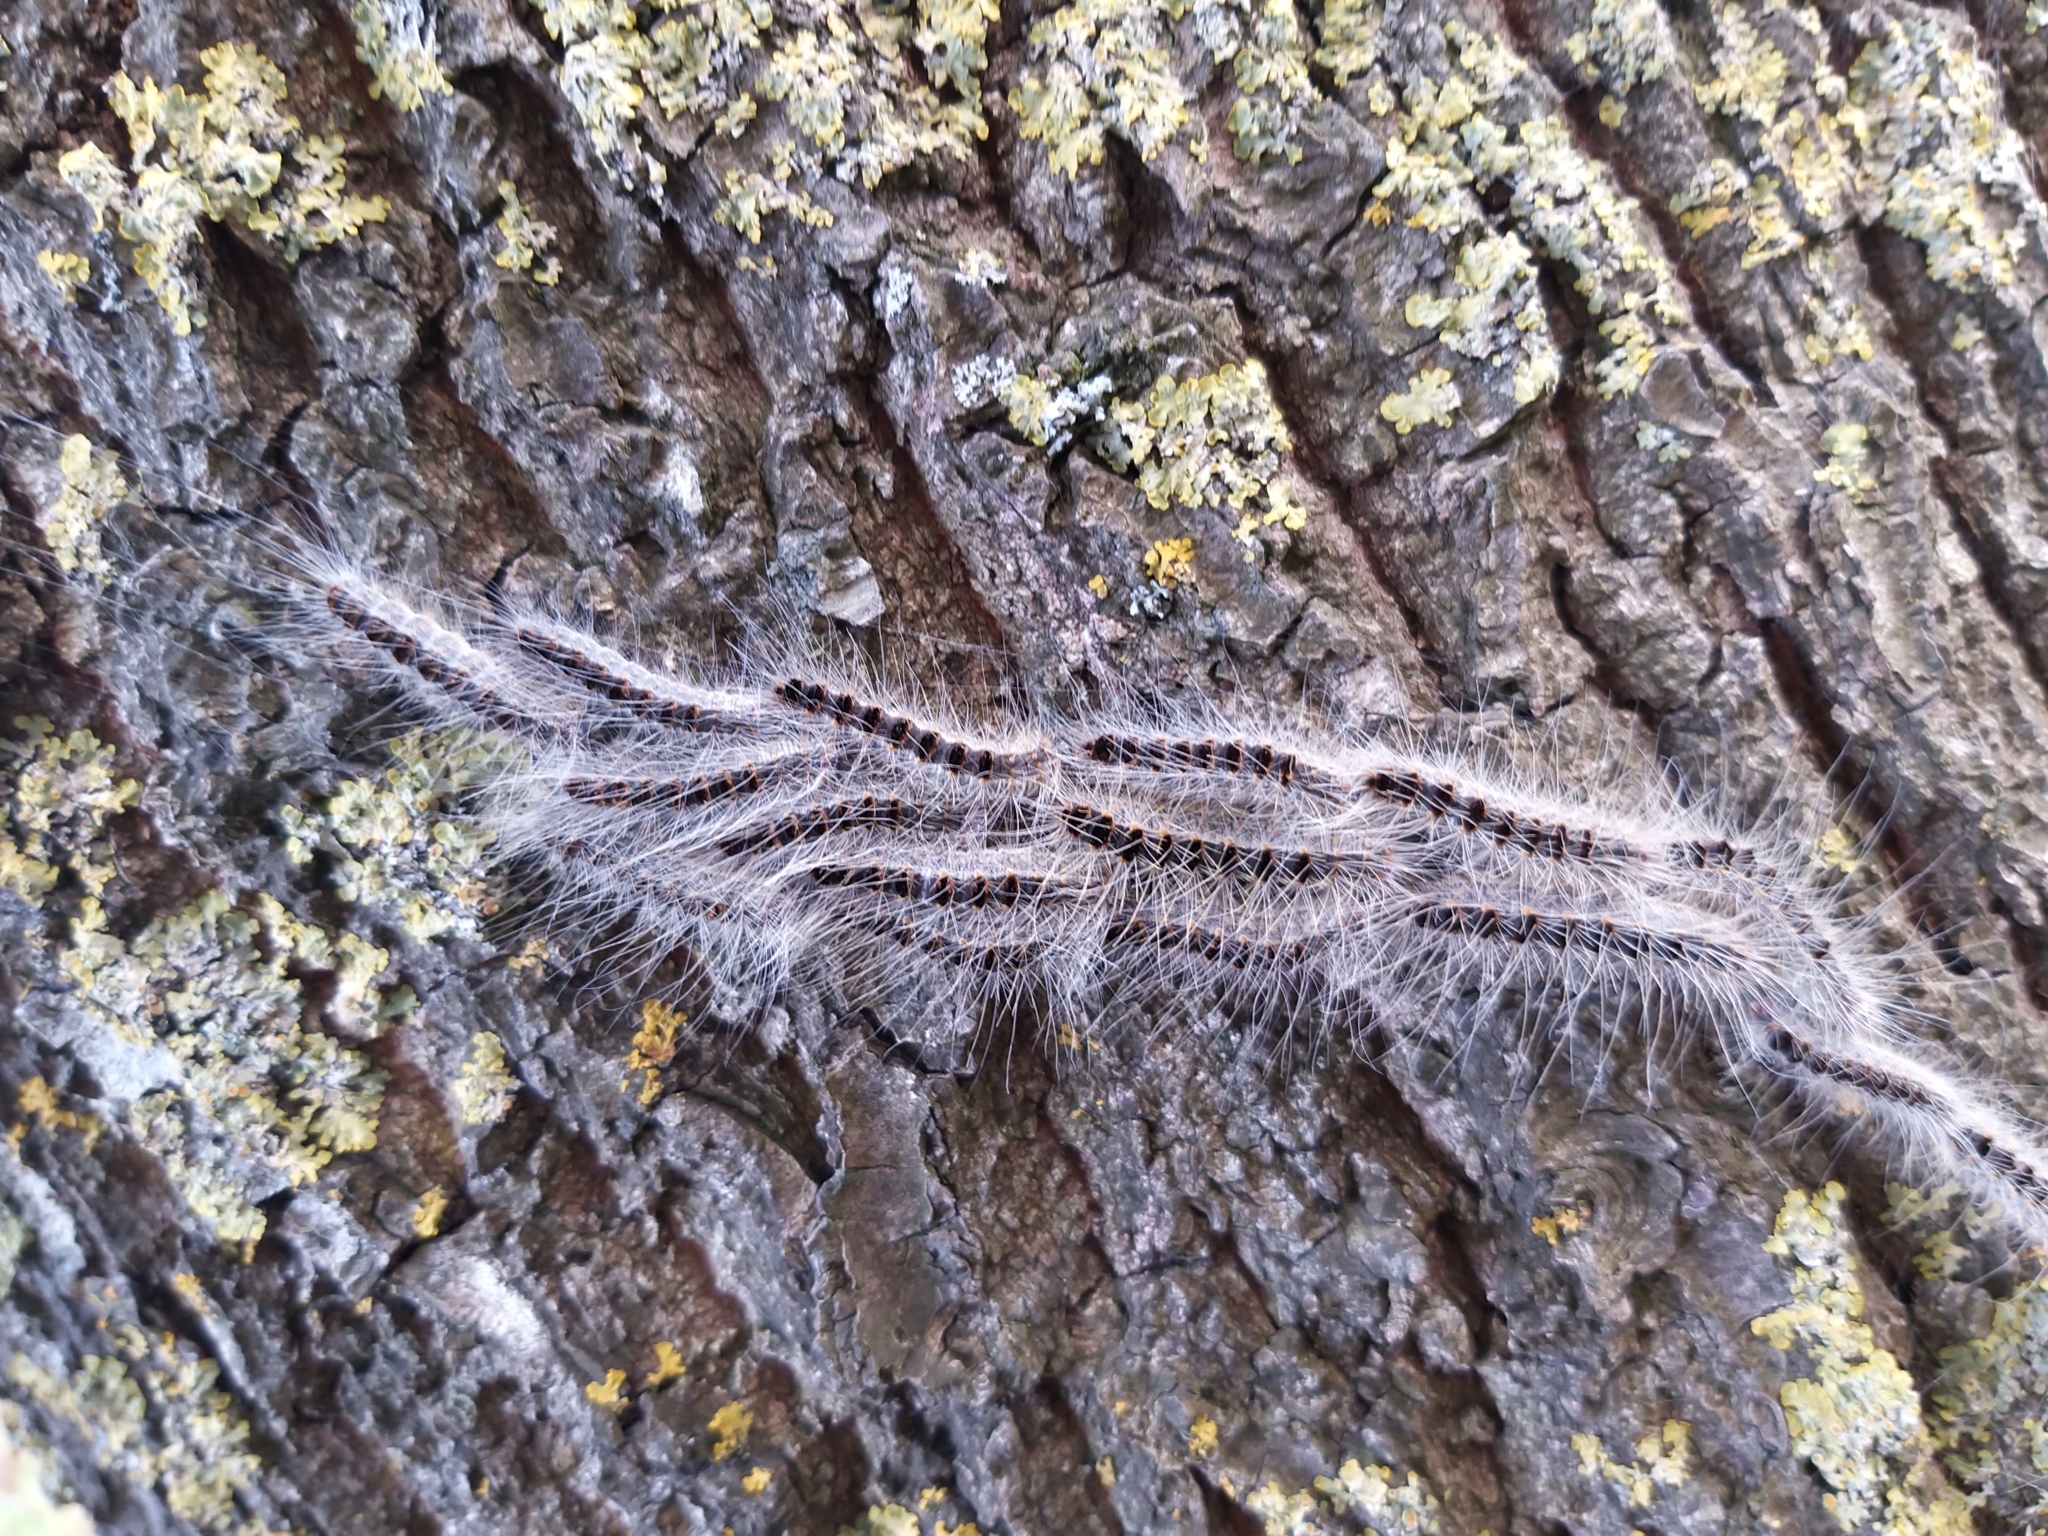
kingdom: Animalia
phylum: Arthropoda
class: Insecta
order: Lepidoptera
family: Notodontidae
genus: Thaumetopoea
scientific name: Thaumetopoea processionea
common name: Oak processionea
